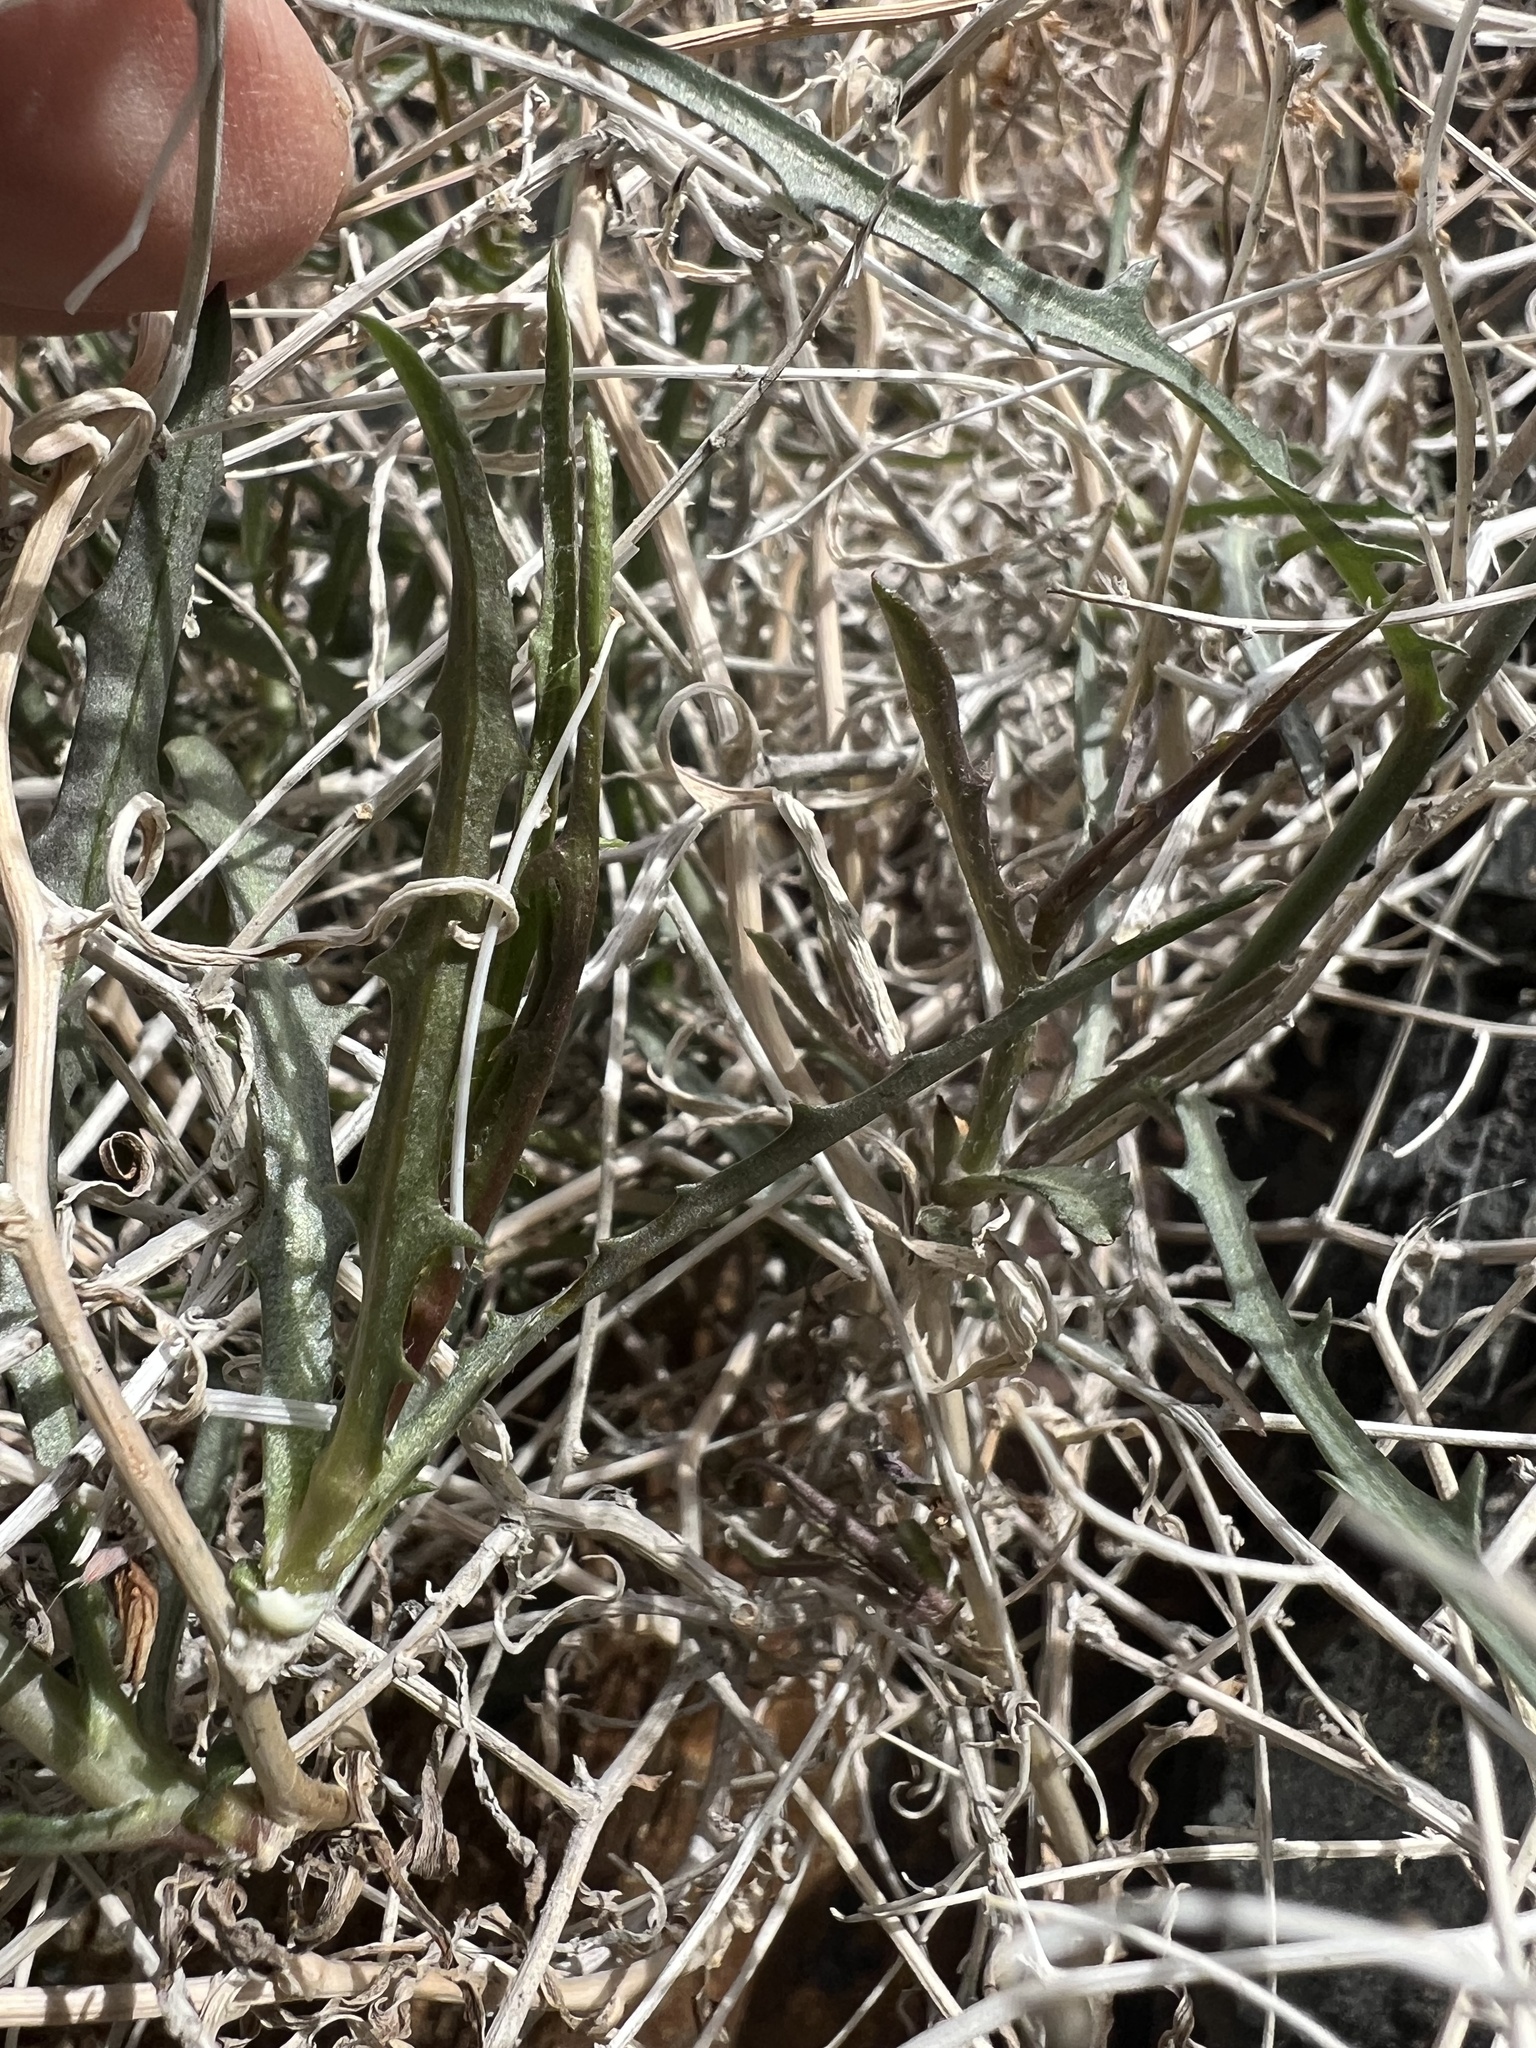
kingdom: Plantae
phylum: Tracheophyta
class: Magnoliopsida
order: Asterales
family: Asteraceae
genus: Stephanomeria
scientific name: Stephanomeria pauciflora
